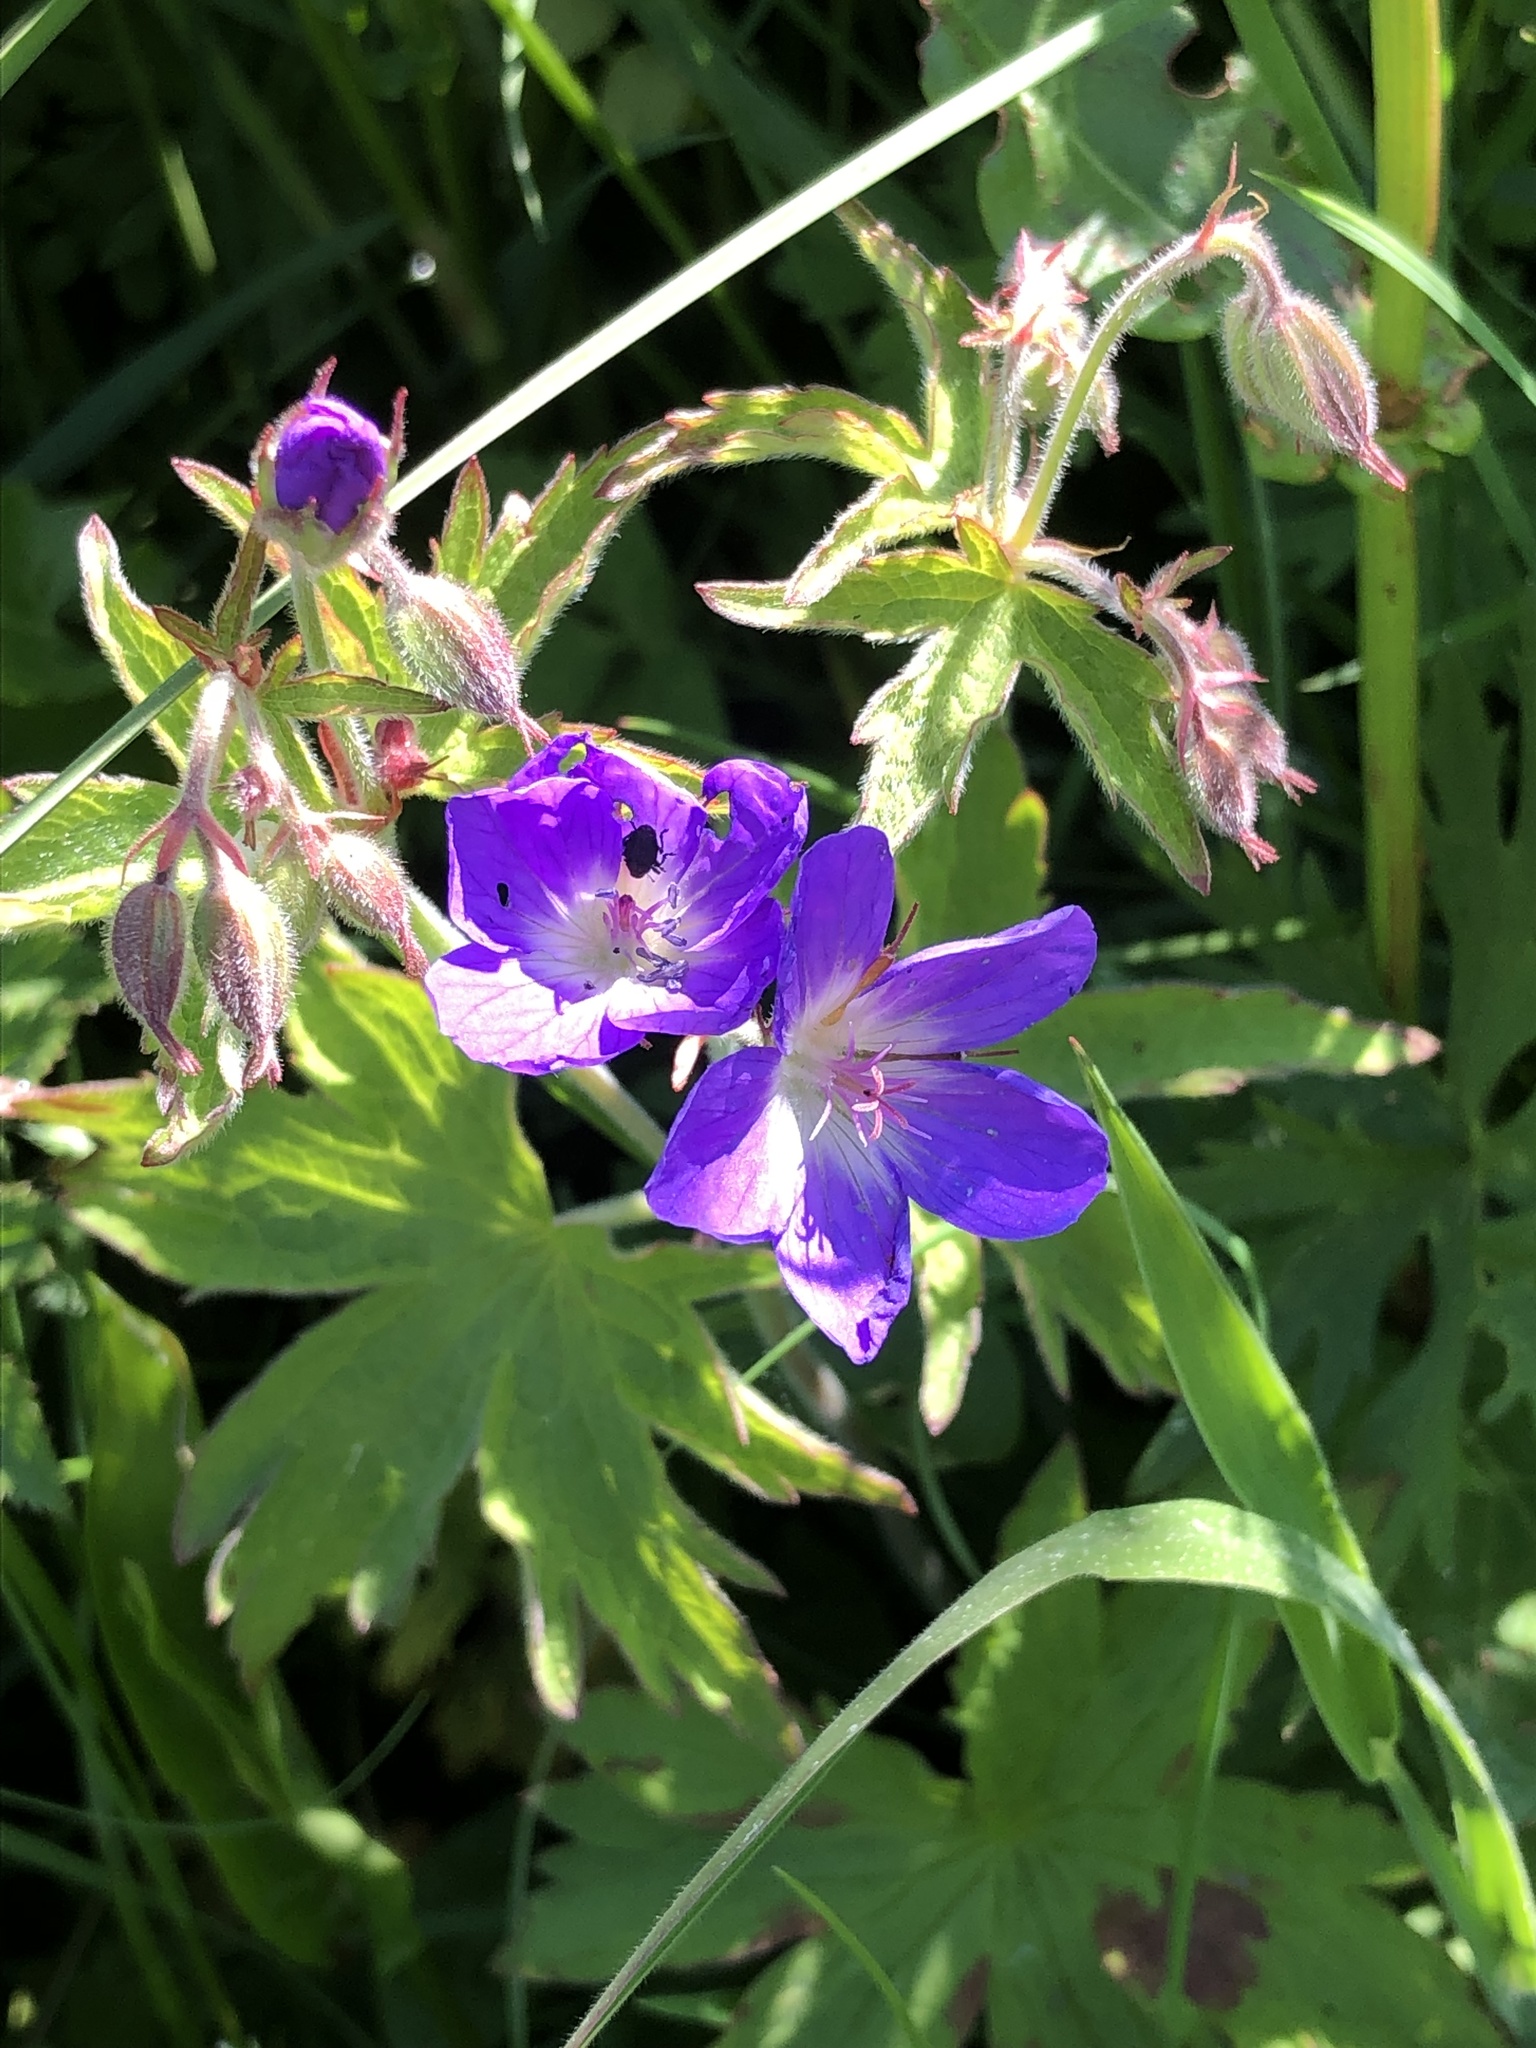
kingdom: Plantae
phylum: Tracheophyta
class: Magnoliopsida
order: Geraniales
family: Geraniaceae
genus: Geranium
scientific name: Geranium sylvaticum
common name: Wood crane's-bill
